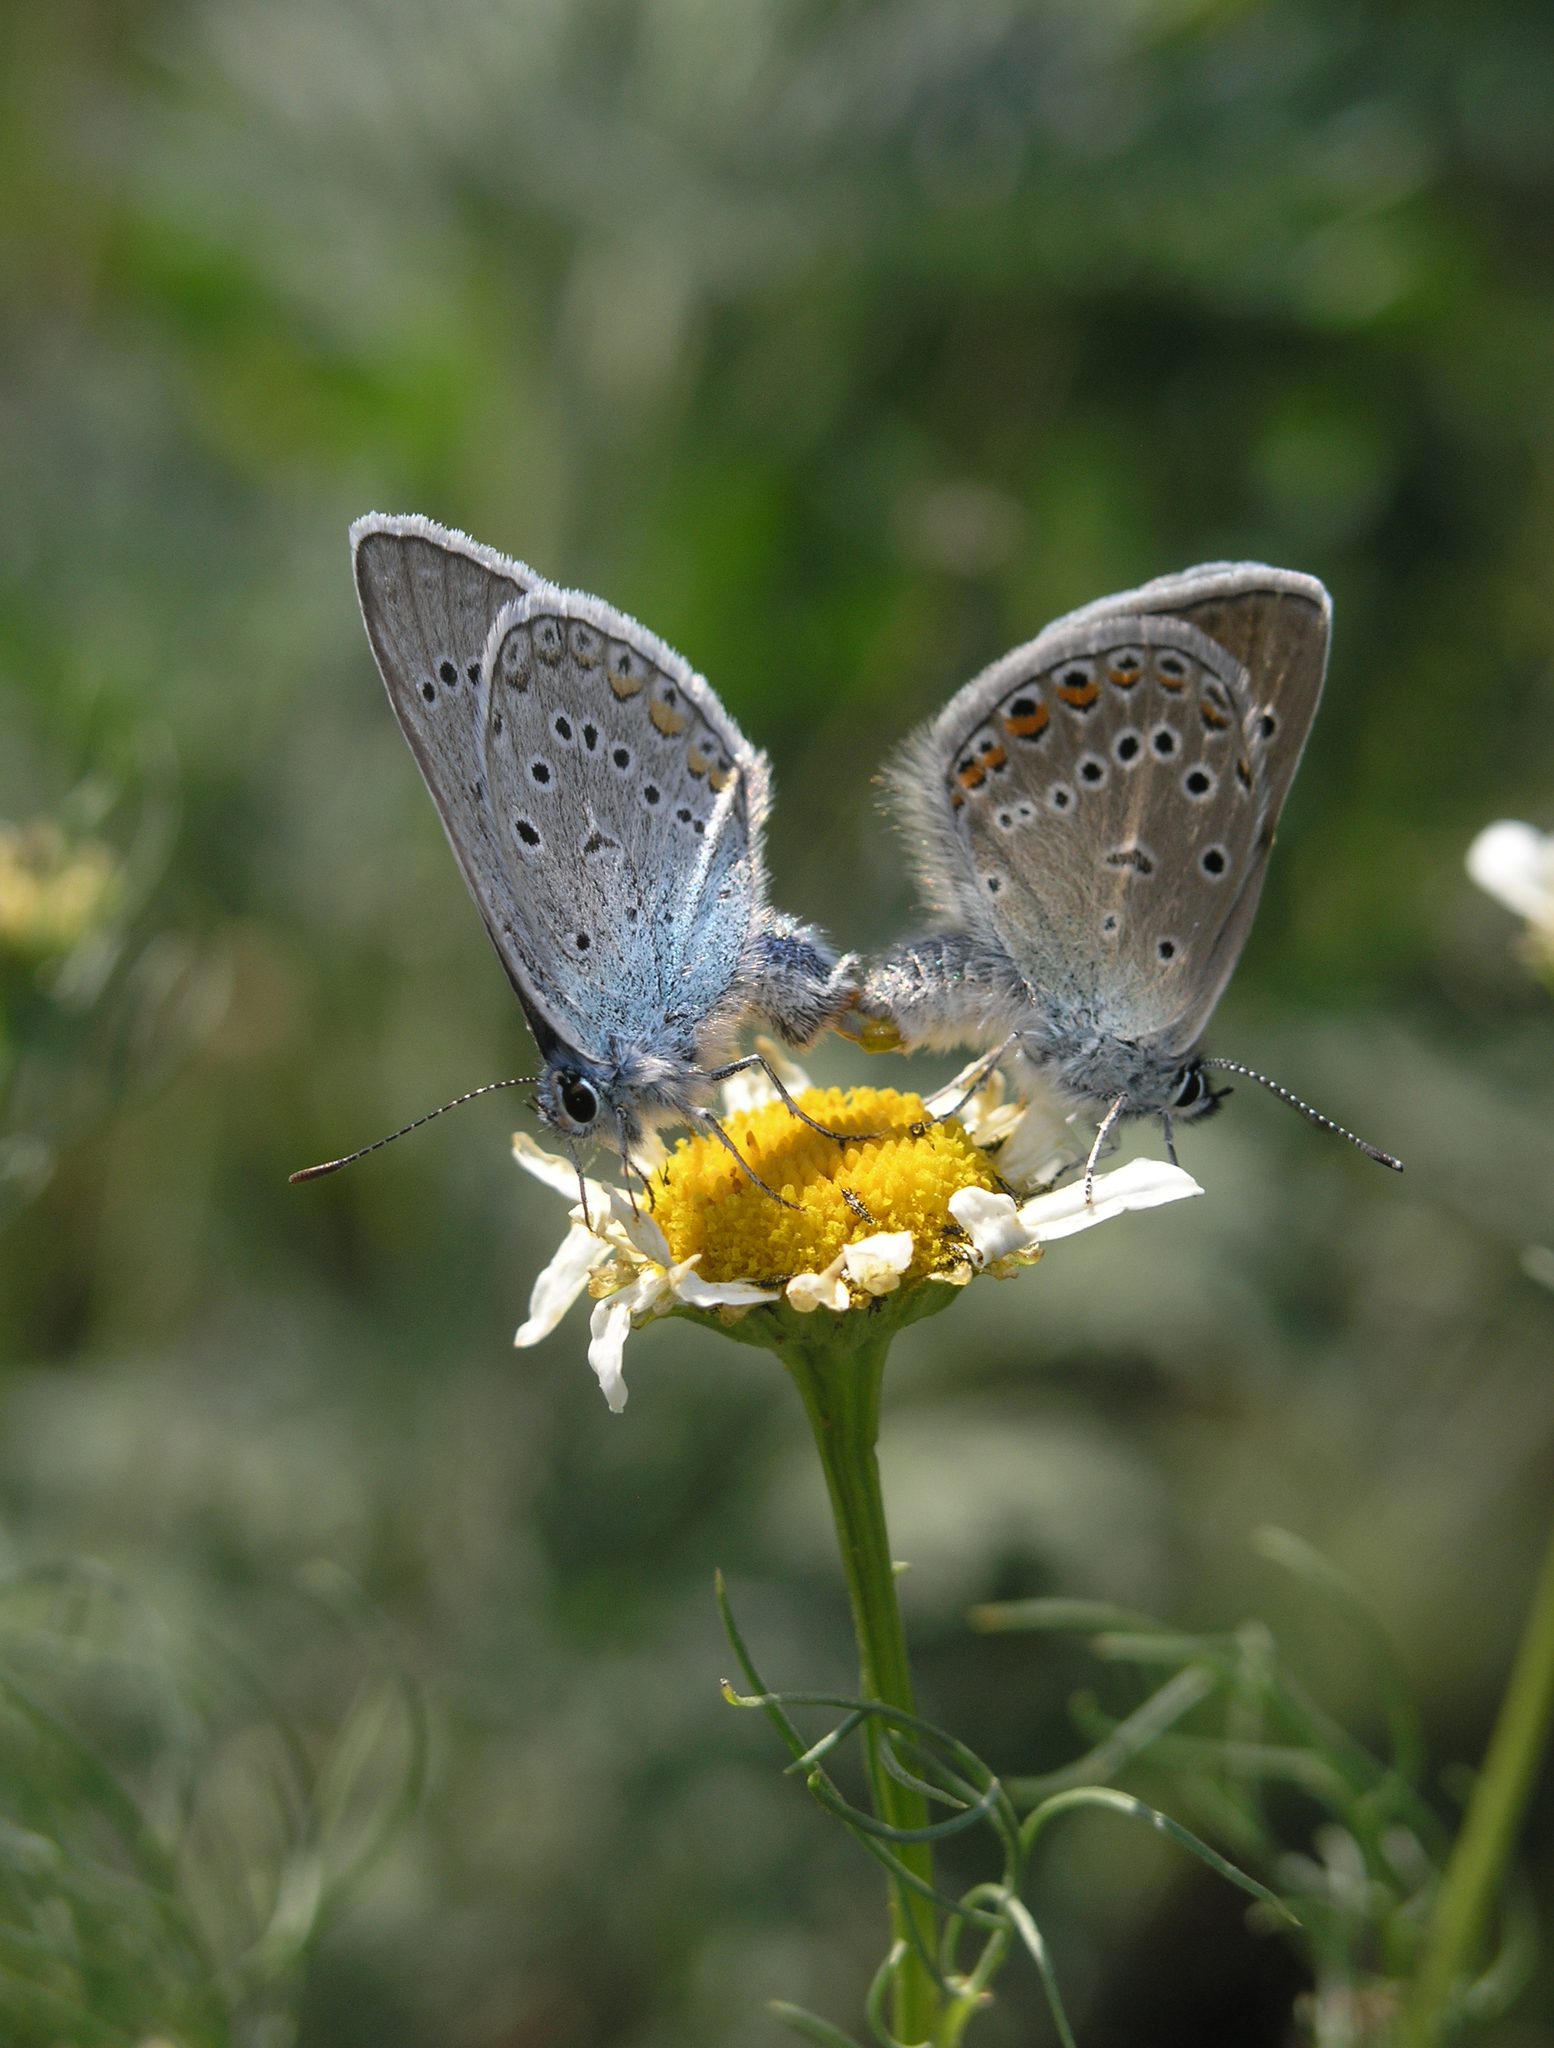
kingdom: Plantae
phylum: Tracheophyta
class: Magnoliopsida
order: Asterales
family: Asteraceae
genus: Tripleurospermum
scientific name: Tripleurospermum inodorum
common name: Scentless mayweed
